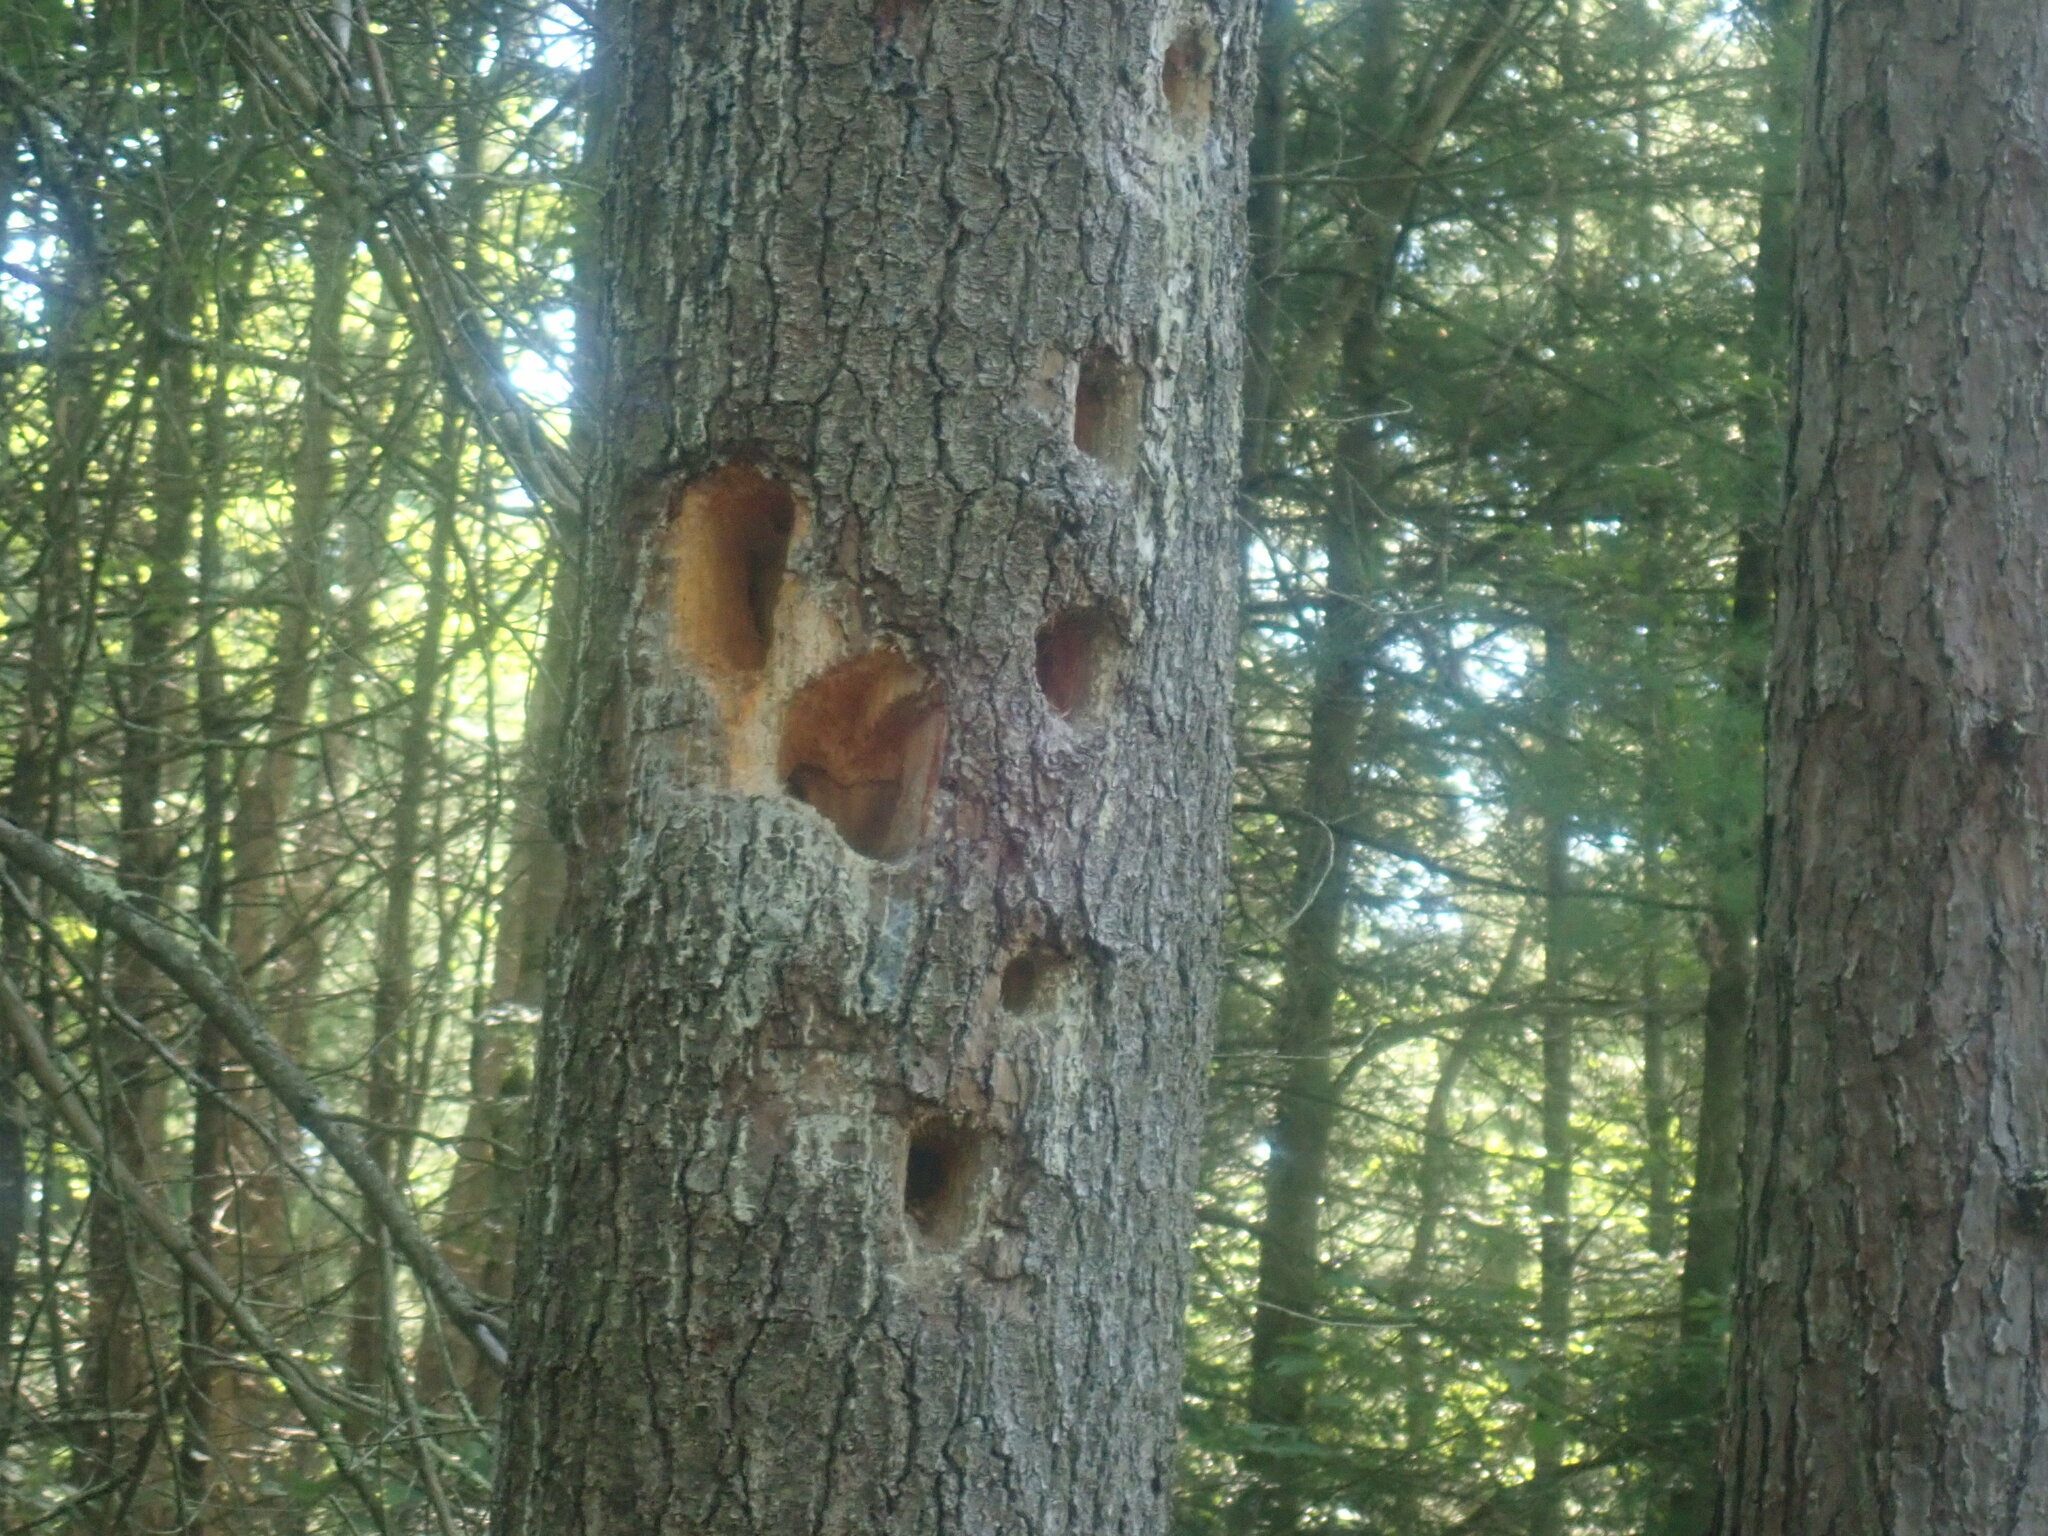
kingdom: Animalia
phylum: Chordata
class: Aves
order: Piciformes
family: Picidae
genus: Dryocopus
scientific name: Dryocopus pileatus
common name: Pileated woodpecker
